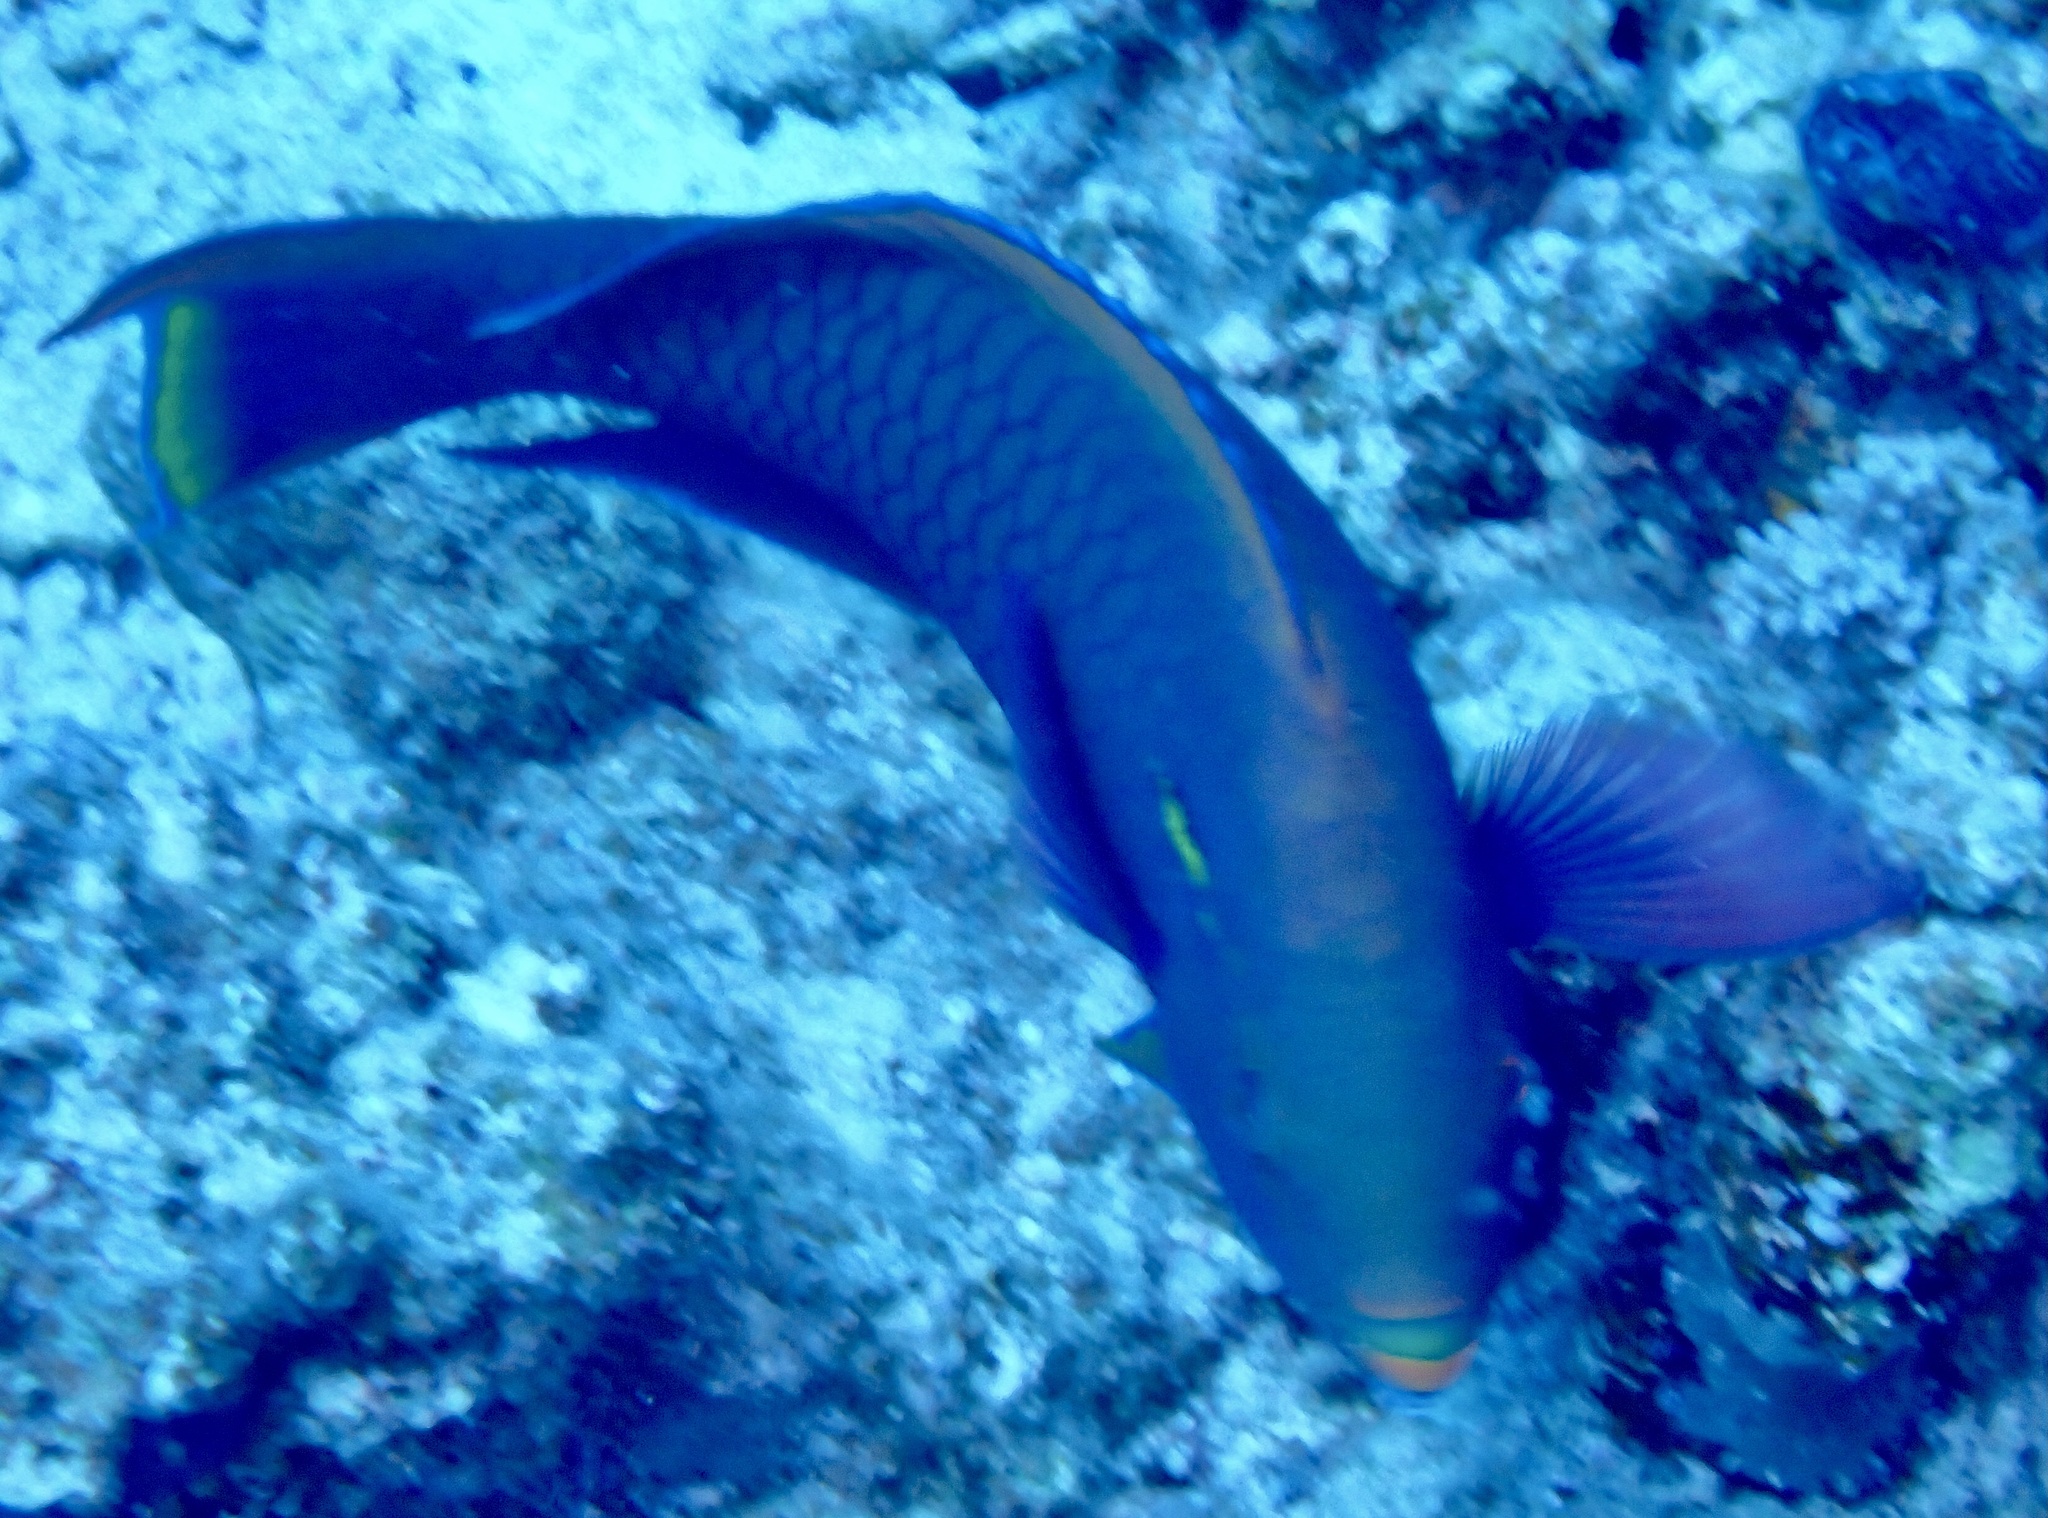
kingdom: Animalia
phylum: Chordata
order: Perciformes
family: Scaridae
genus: Scarus
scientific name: Scarus niger
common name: Dusky parrotfish
